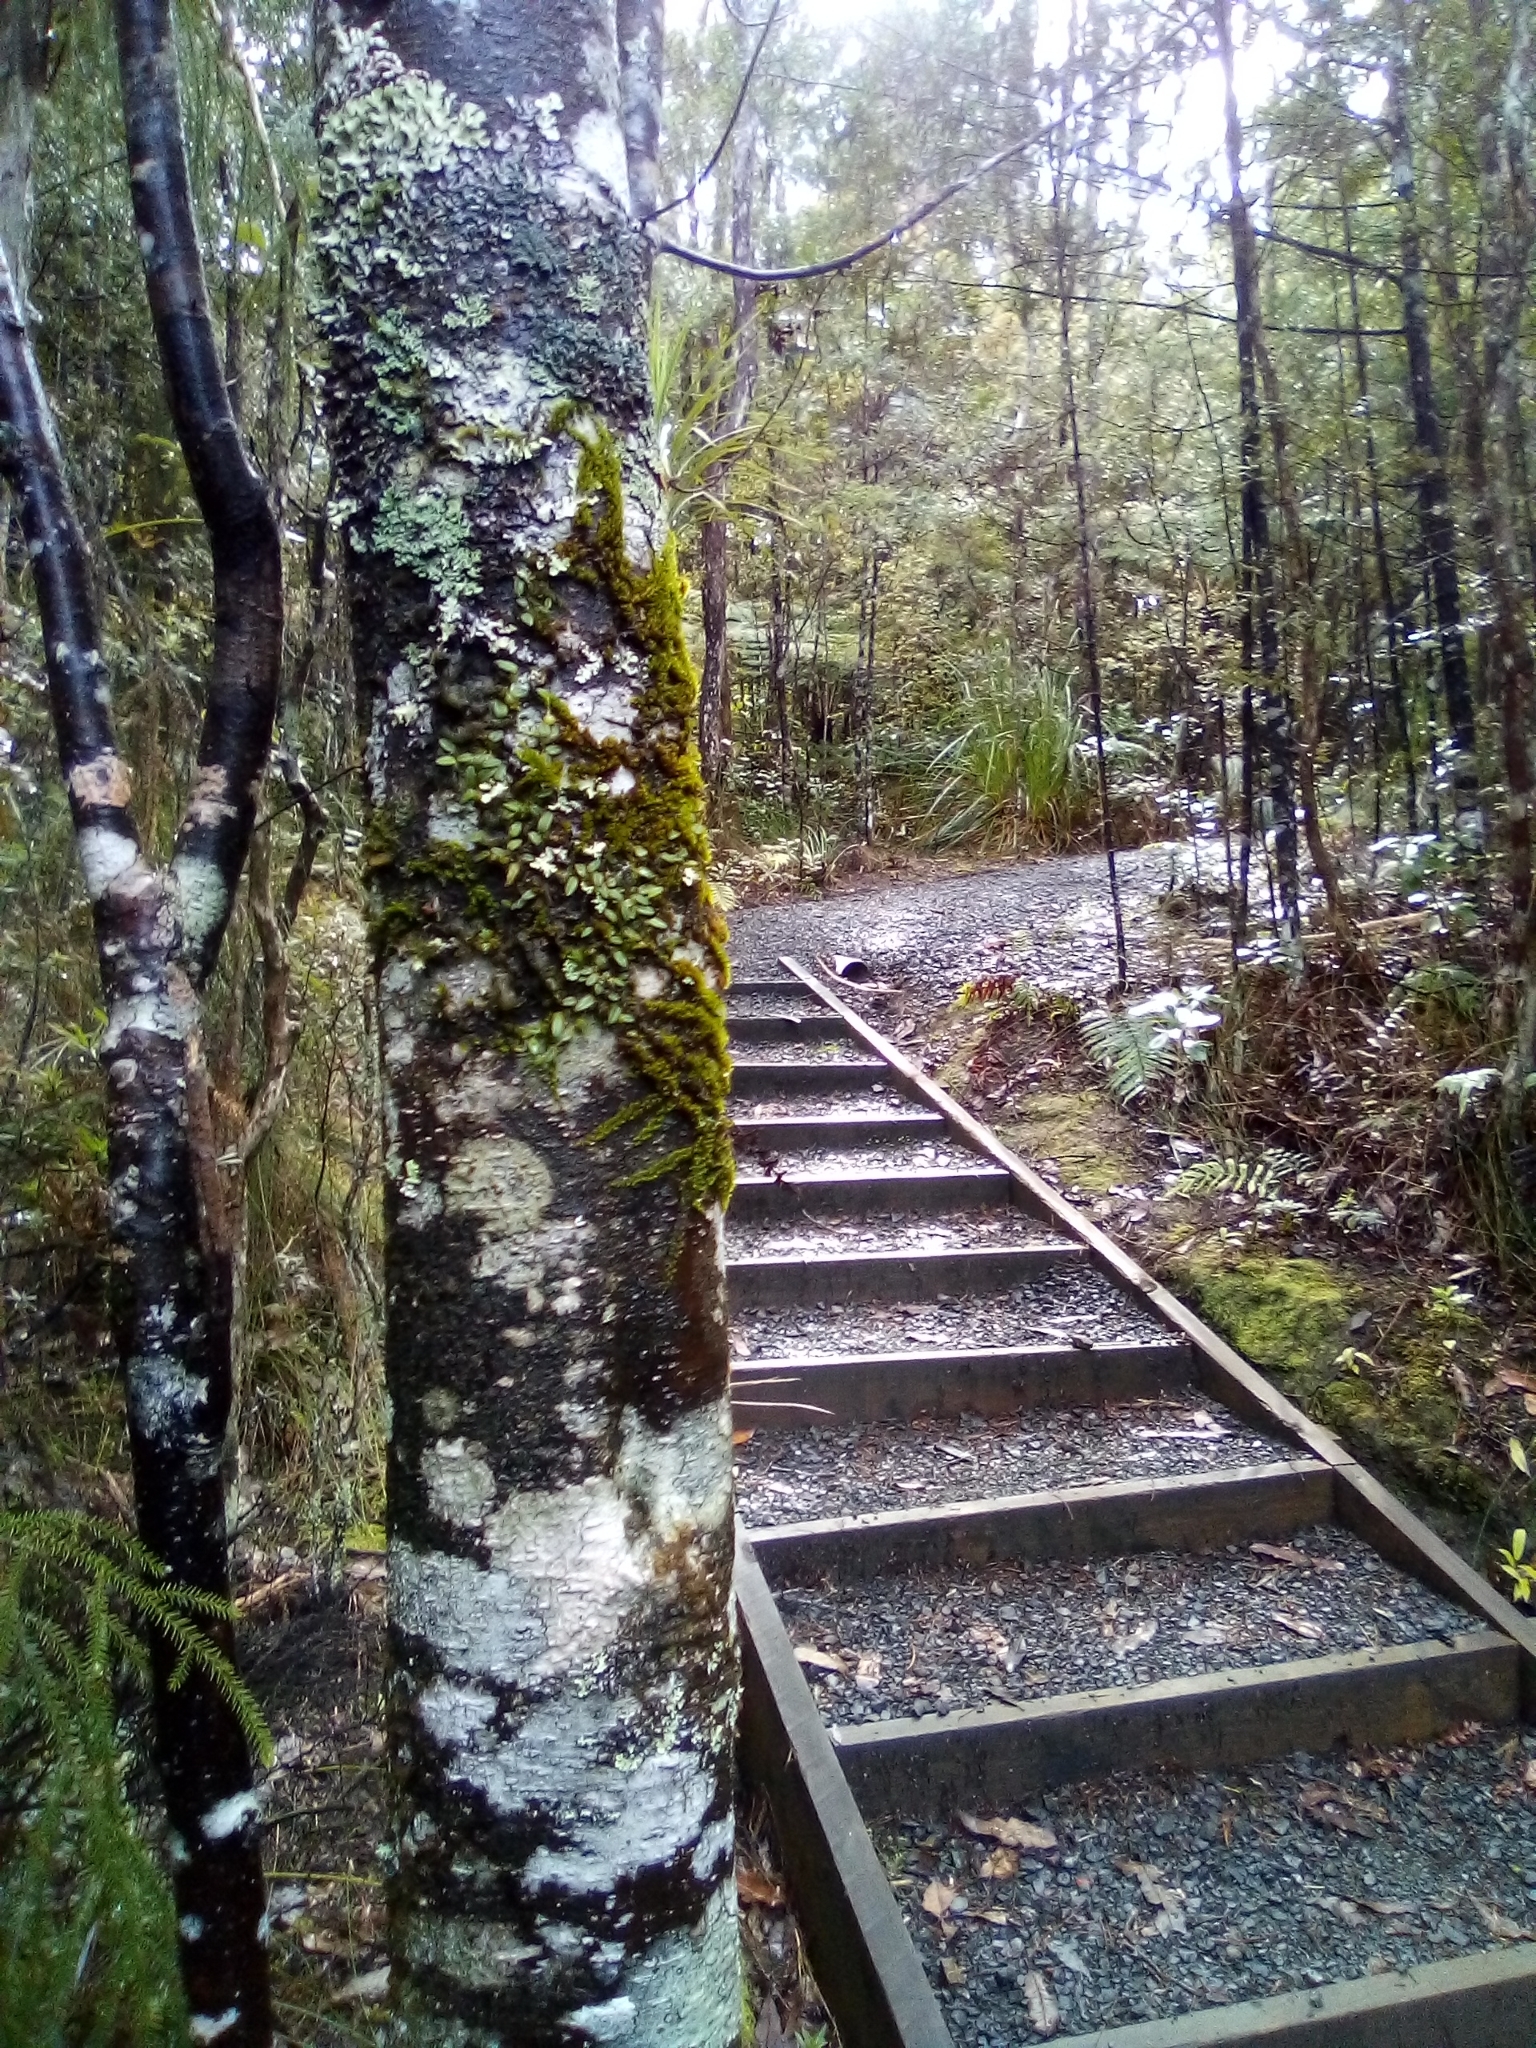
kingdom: Plantae
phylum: Tracheophyta
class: Liliopsida
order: Asparagales
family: Orchidaceae
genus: Bulbophyllum
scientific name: Bulbophyllum pygmaeum
